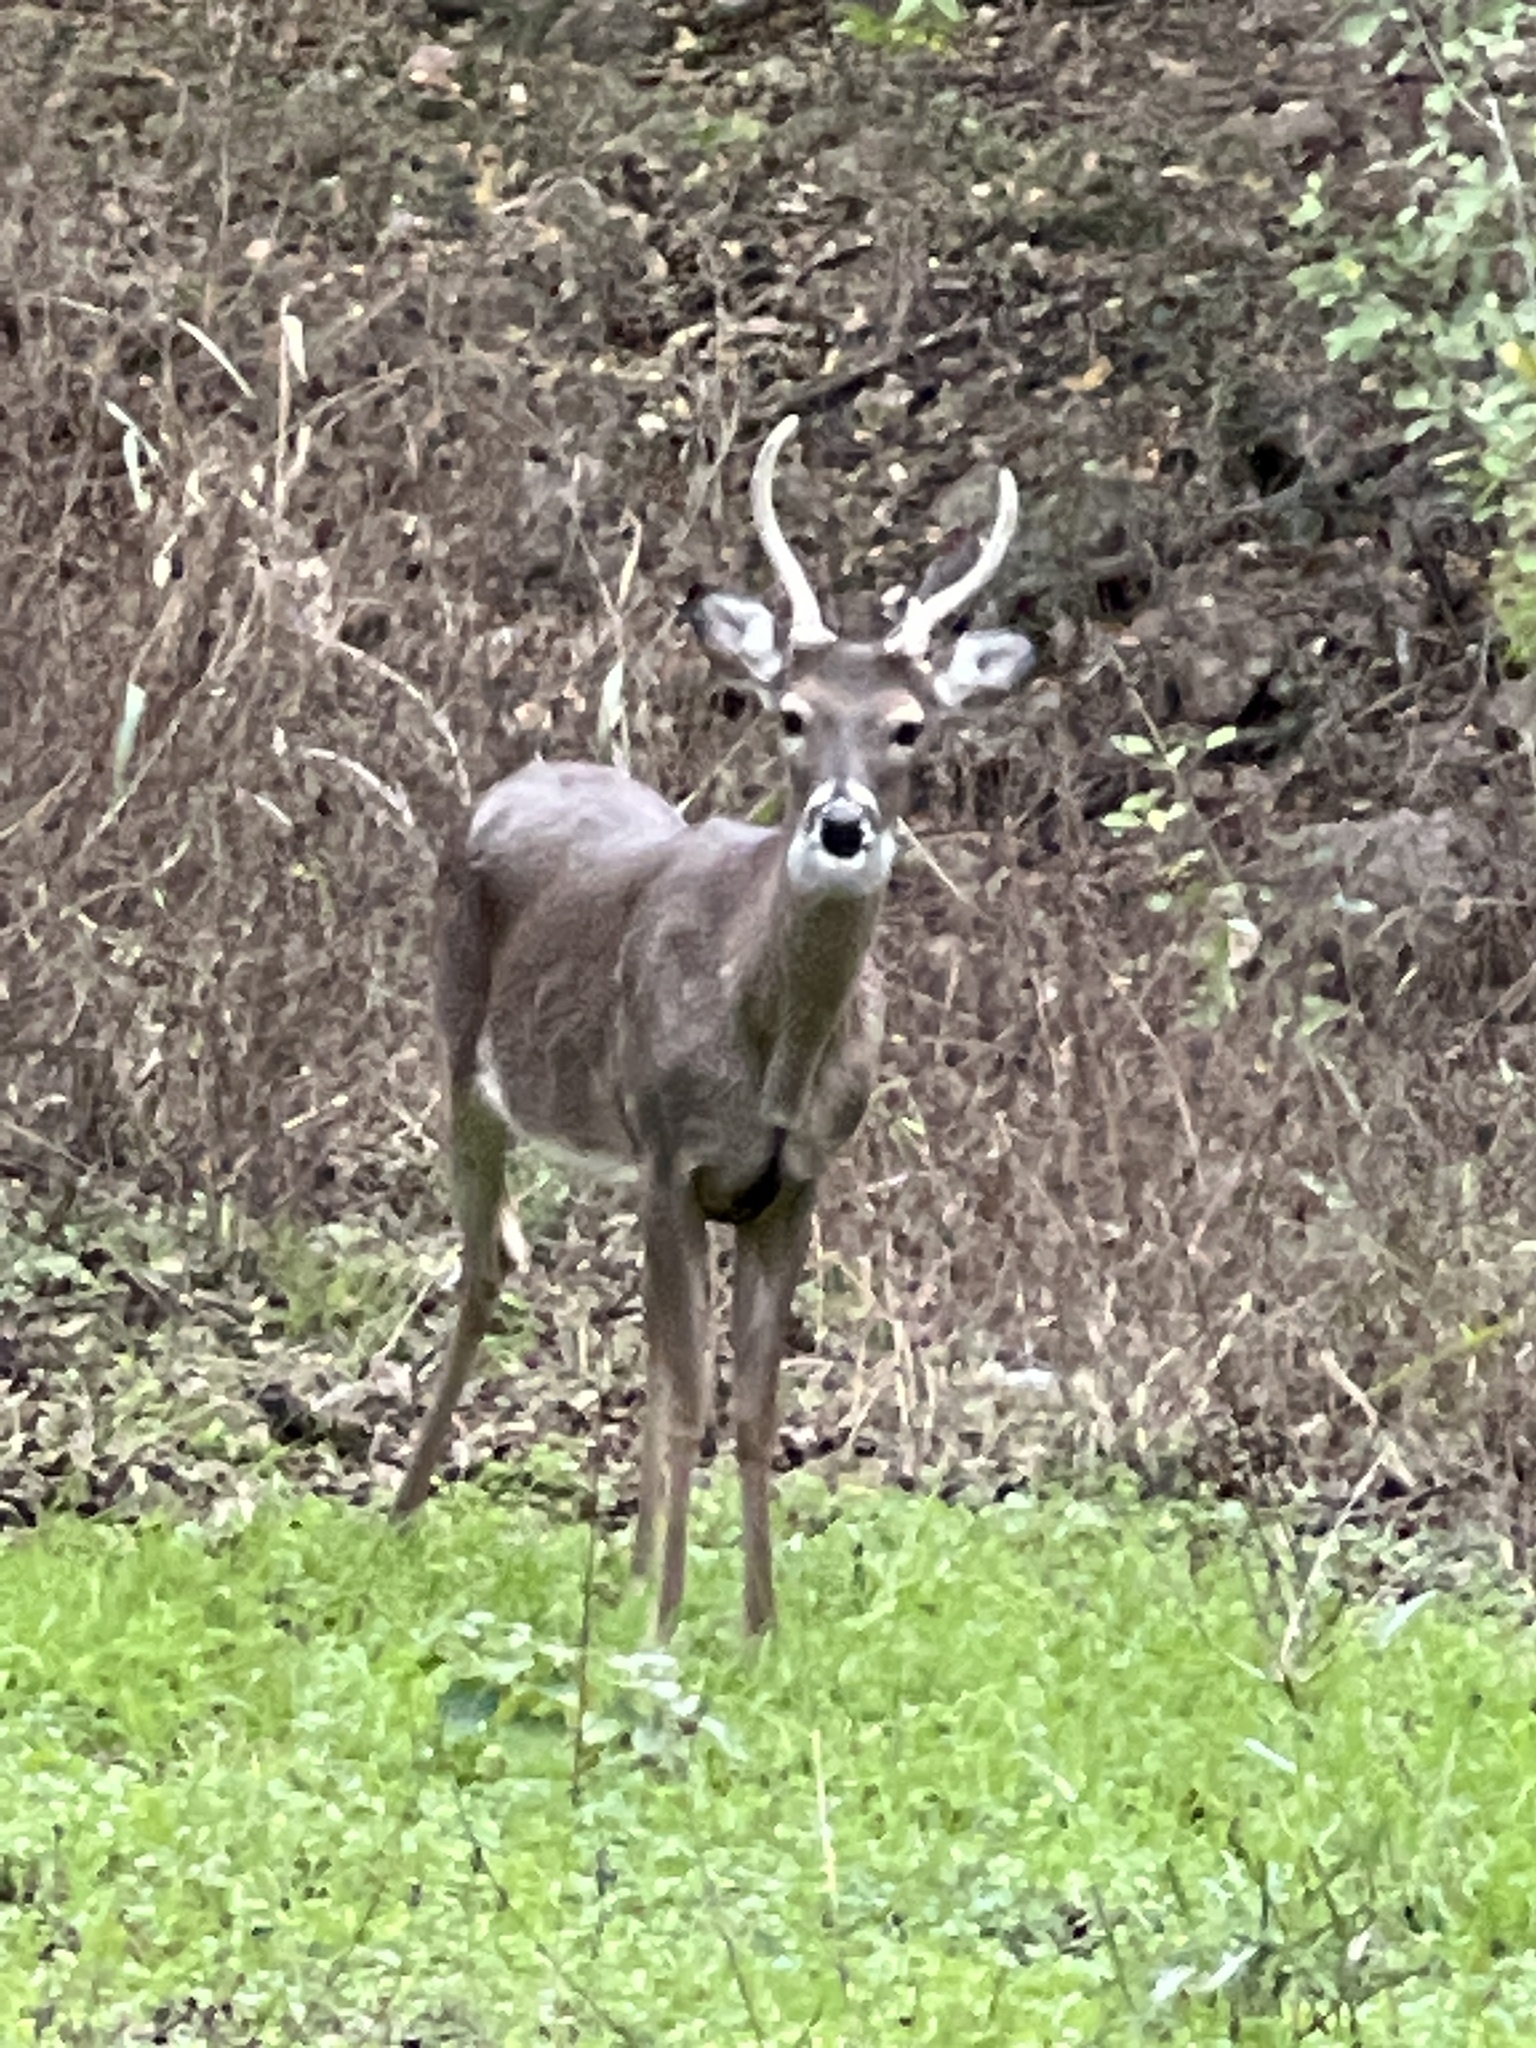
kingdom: Animalia
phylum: Chordata
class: Mammalia
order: Artiodactyla
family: Cervidae
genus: Odocoileus
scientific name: Odocoileus virginianus
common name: White-tailed deer
